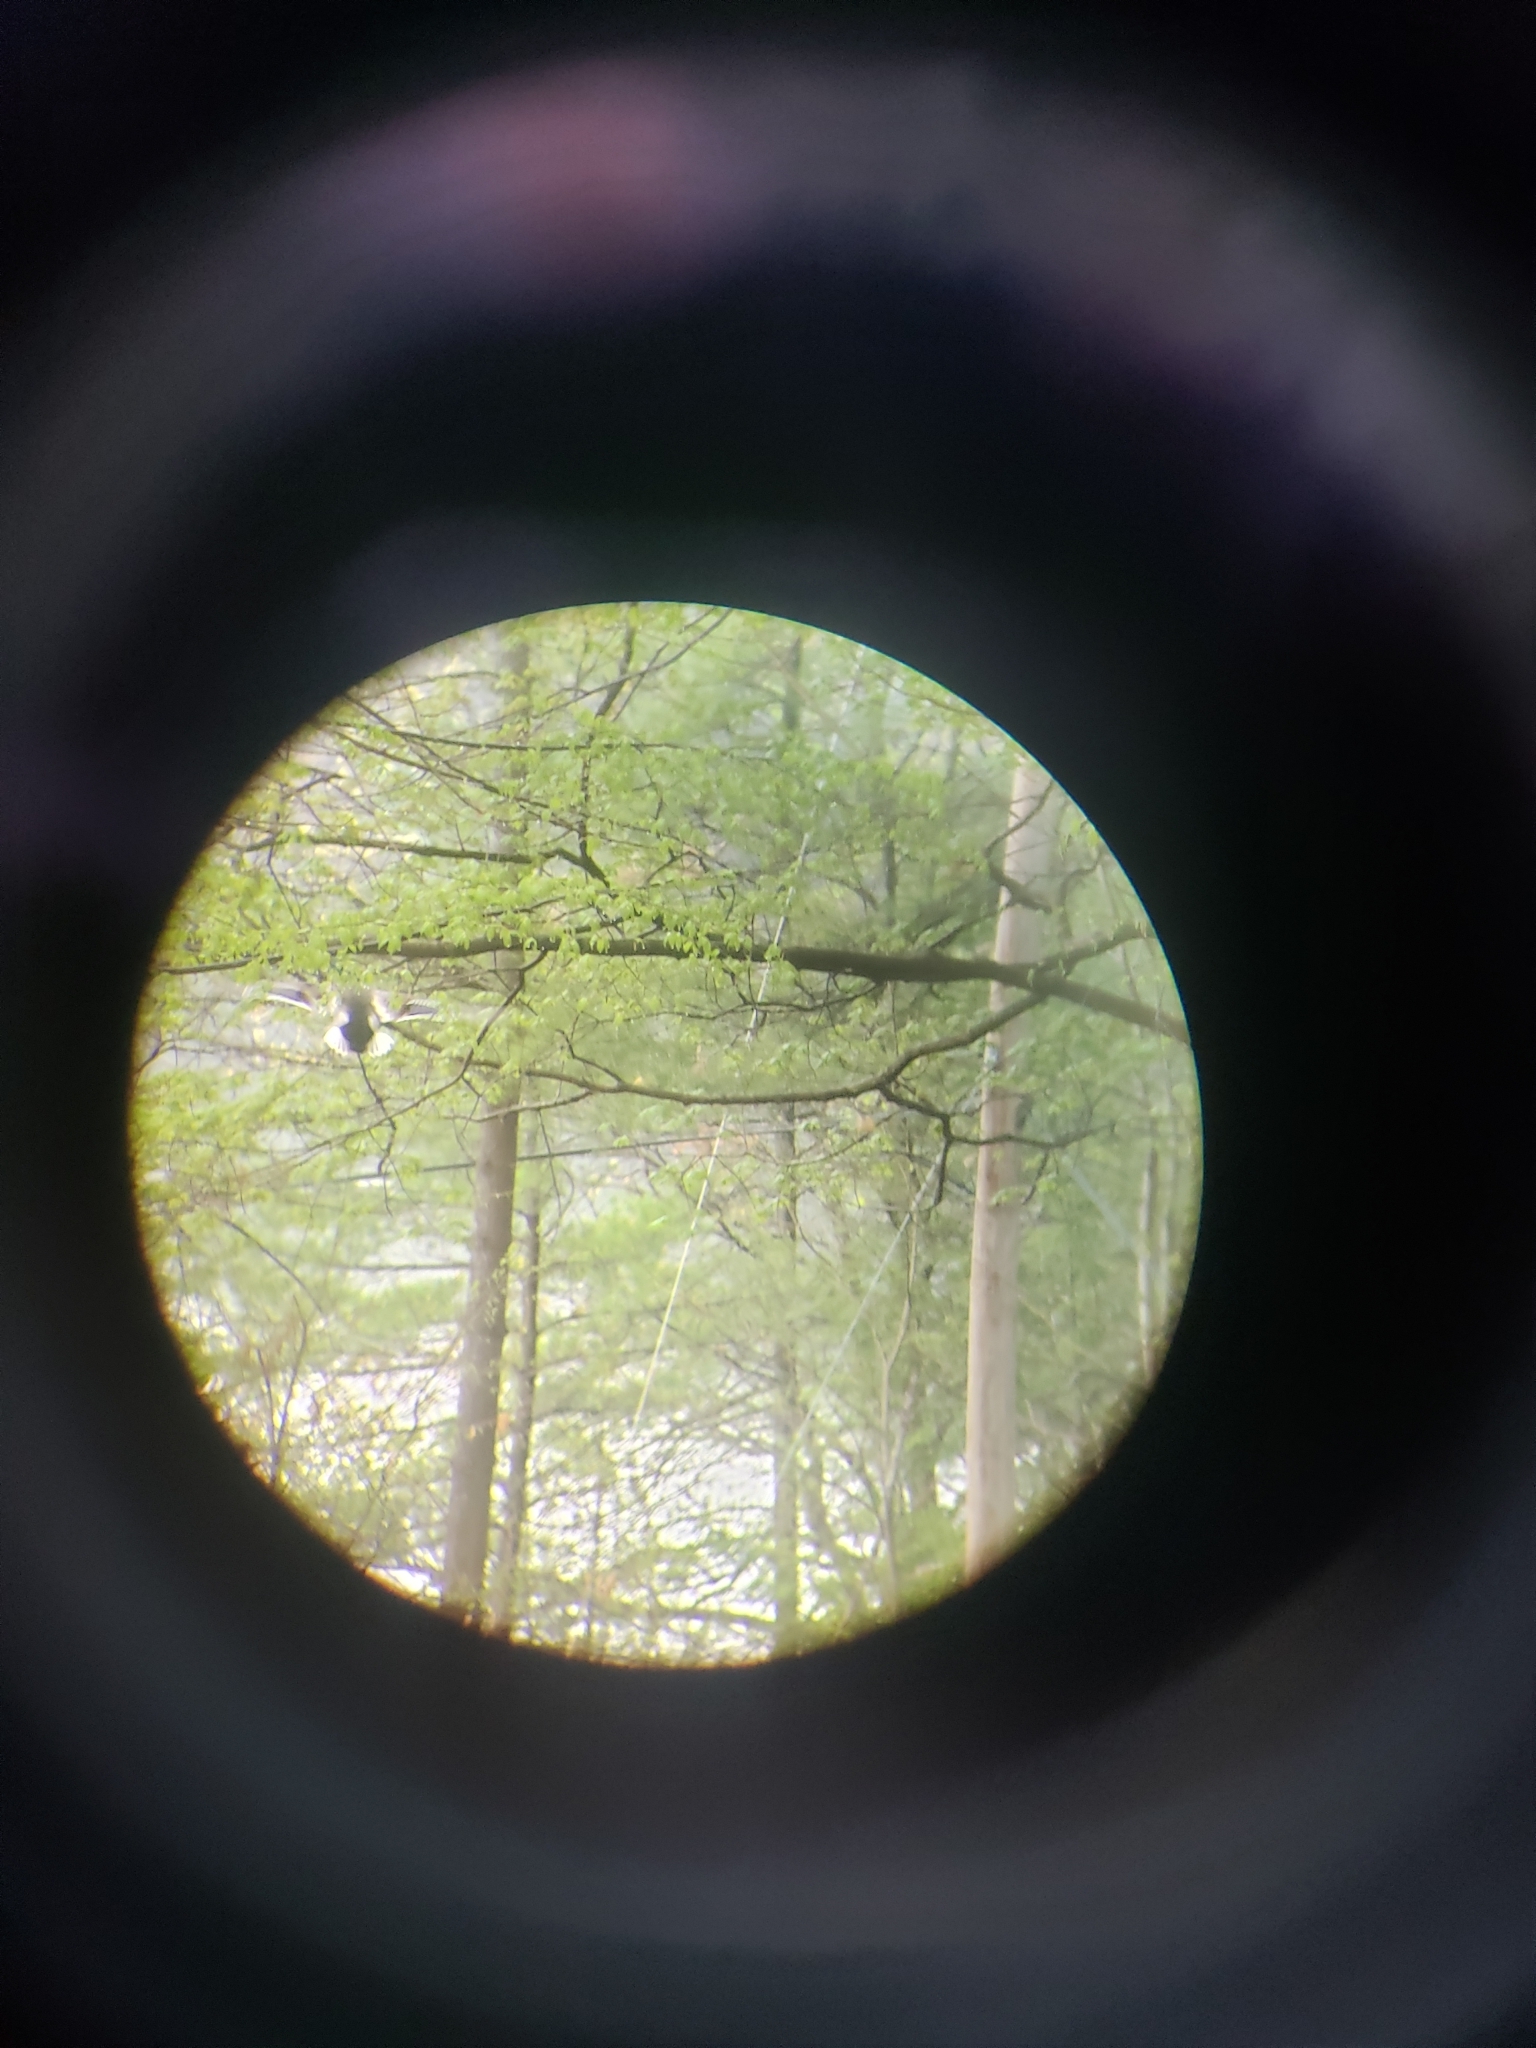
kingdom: Animalia
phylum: Chordata
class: Aves
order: Anseriformes
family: Anatidae
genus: Anas
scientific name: Anas platyrhynchos
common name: Mallard
